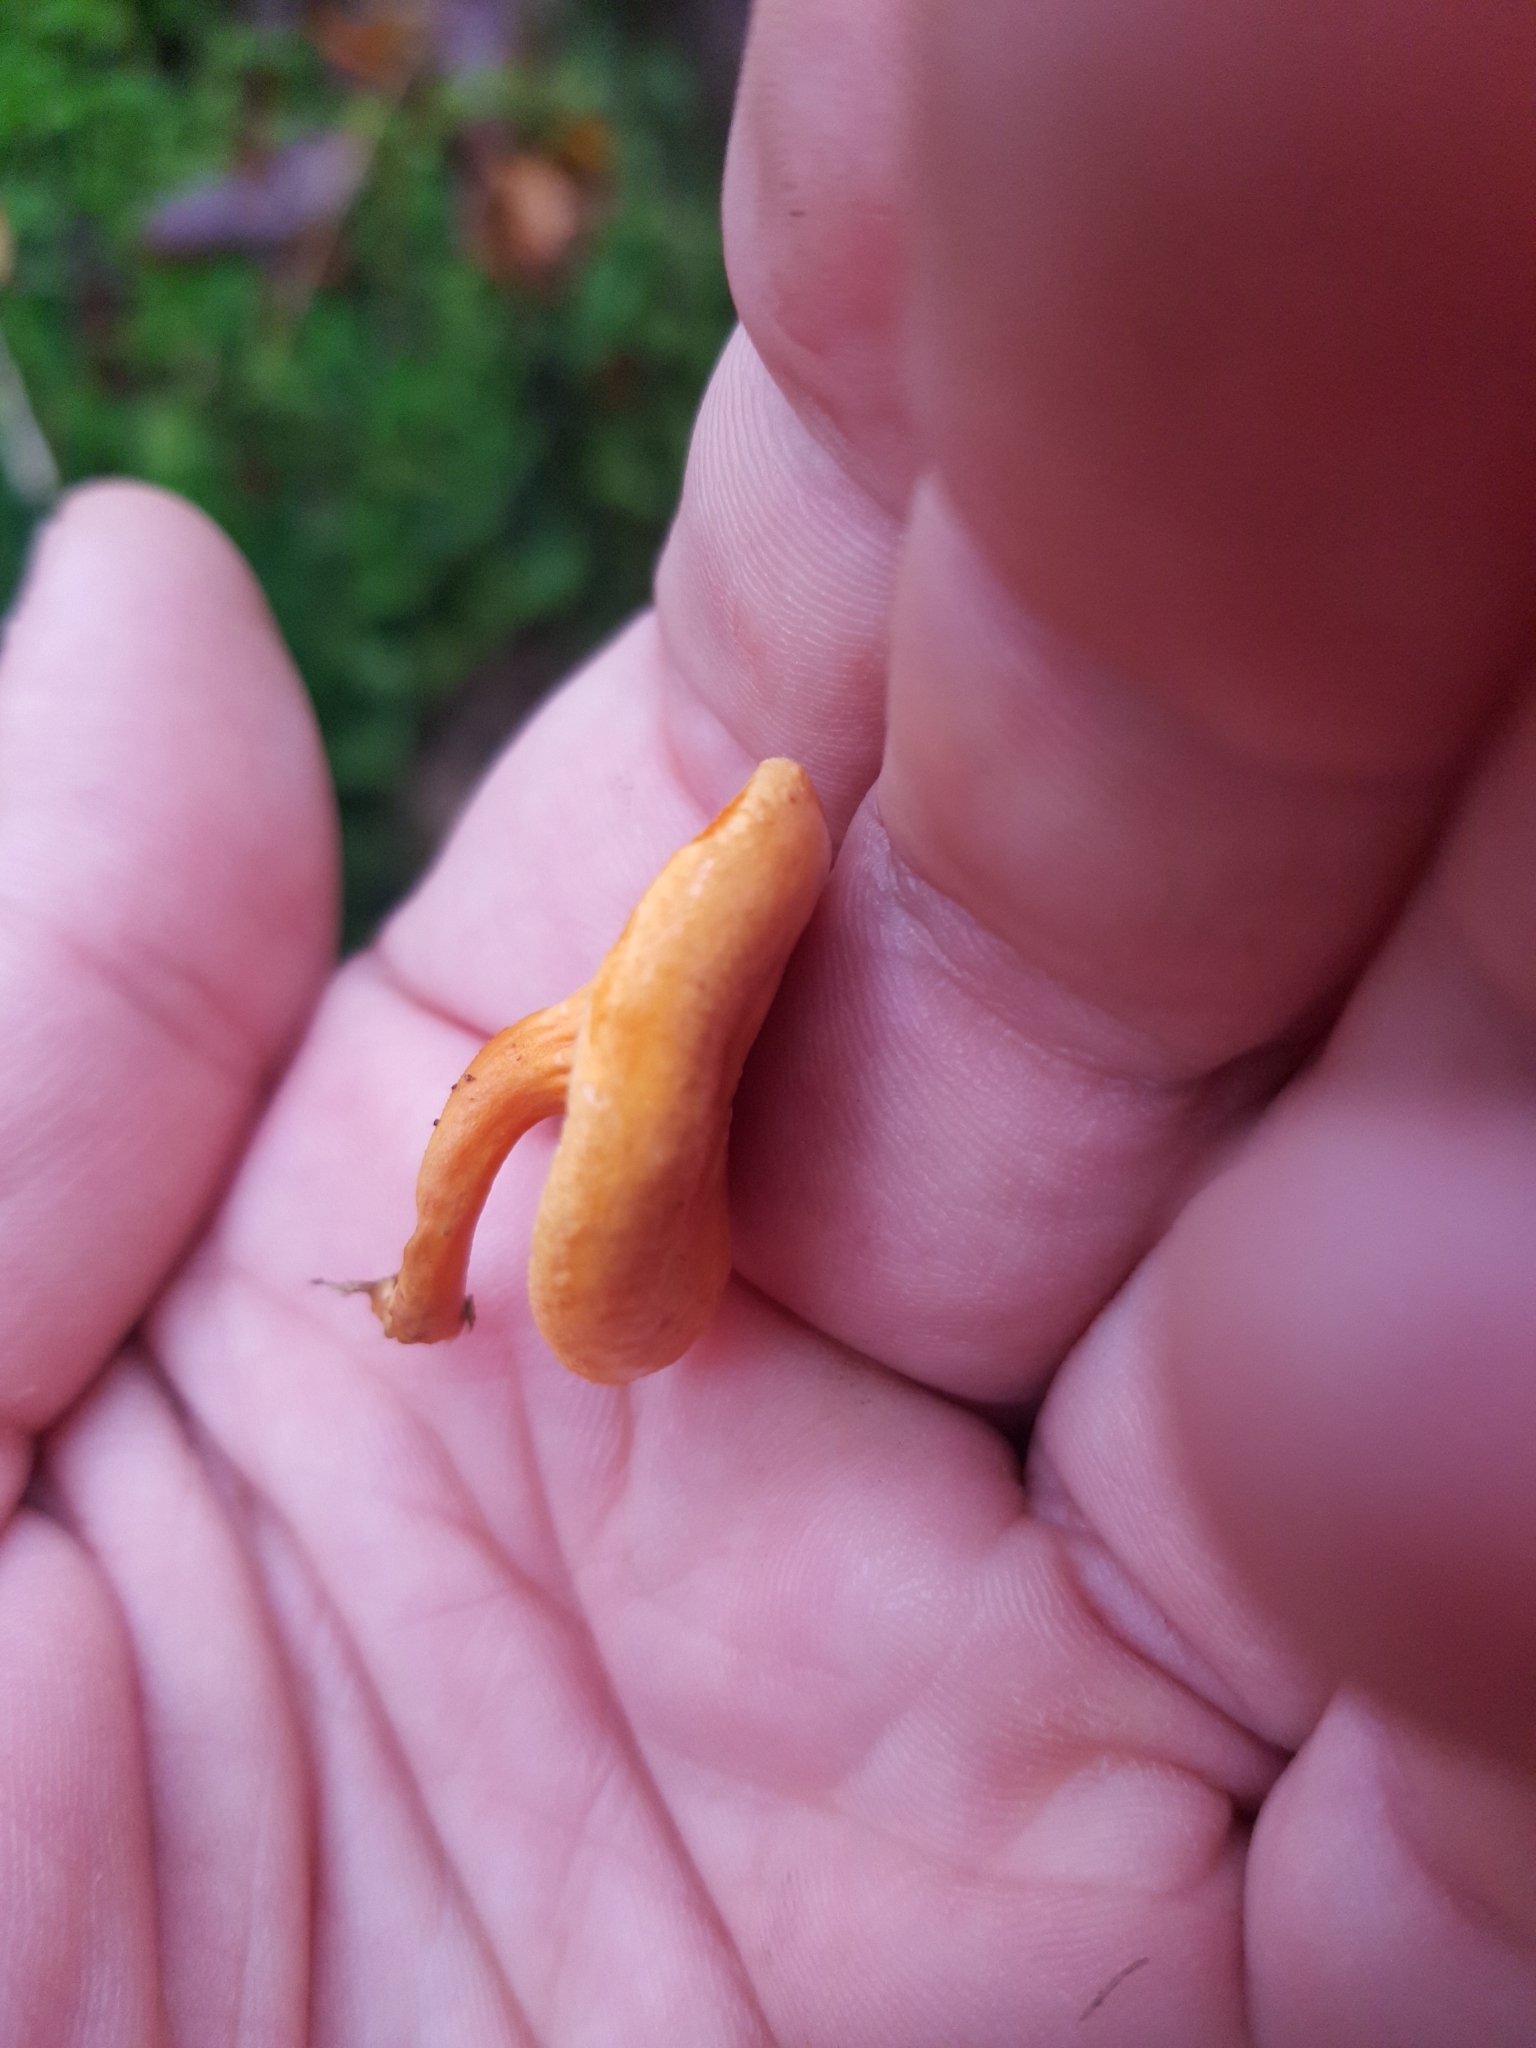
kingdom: Fungi
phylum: Basidiomycota
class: Agaricomycetes
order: Boletales
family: Hygrophoropsidaceae
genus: Hygrophoropsis
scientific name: Hygrophoropsis aurantiaca
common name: False chanterelle
